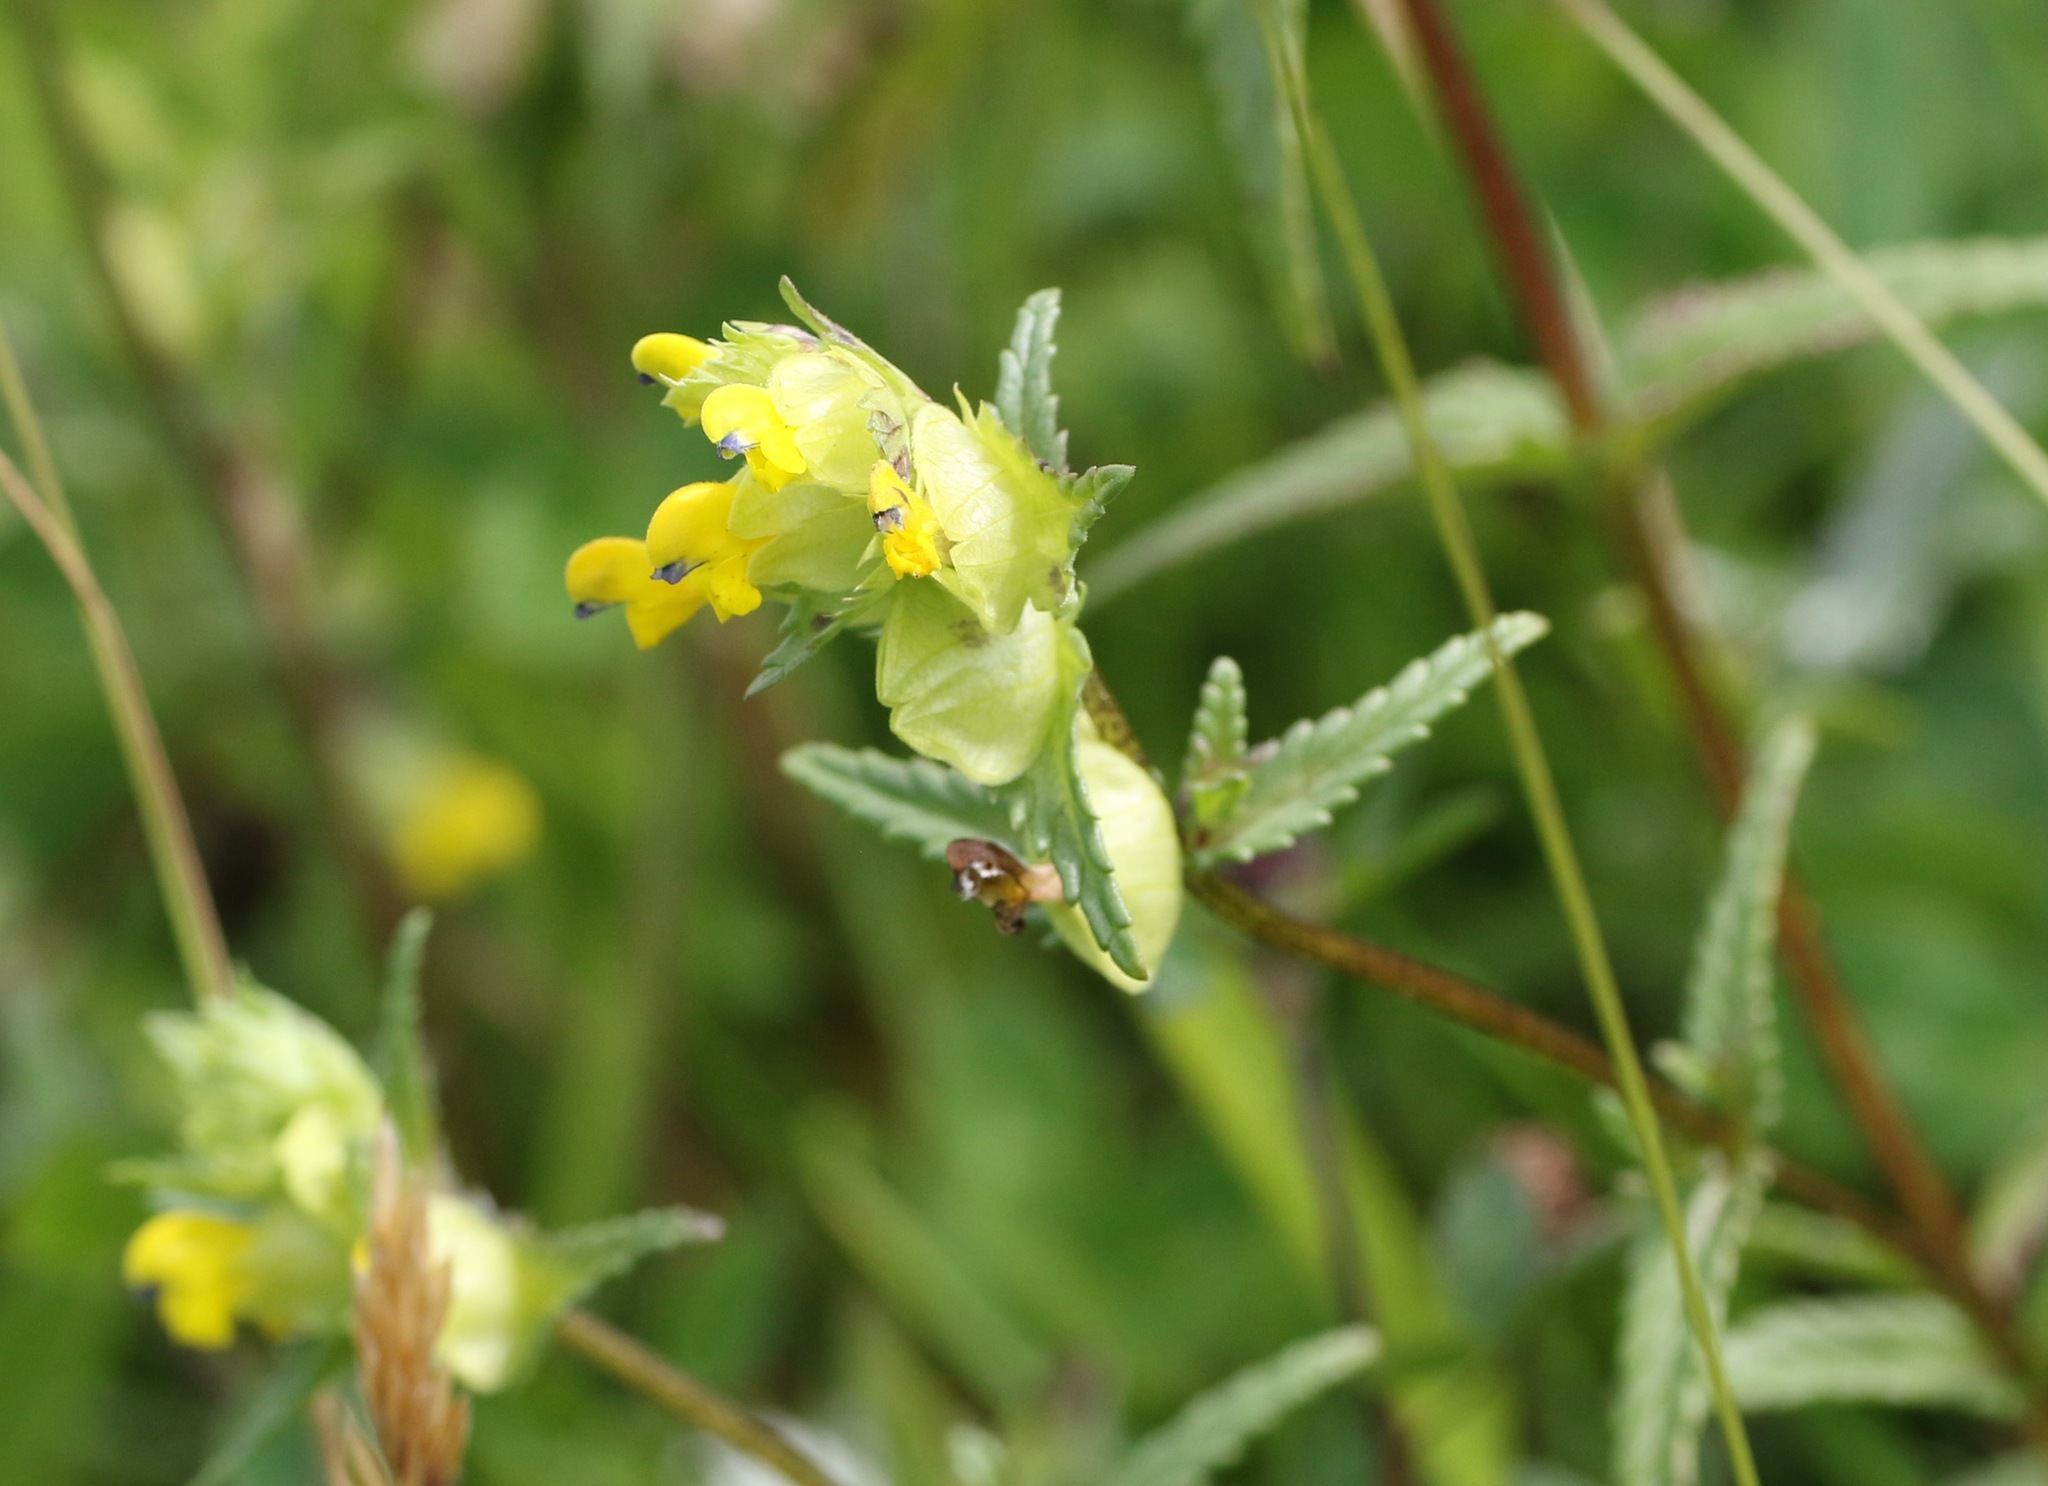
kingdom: Plantae
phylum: Tracheophyta
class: Magnoliopsida
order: Lamiales
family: Orobanchaceae
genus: Rhinanthus
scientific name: Rhinanthus minor
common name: Yellow-rattle
